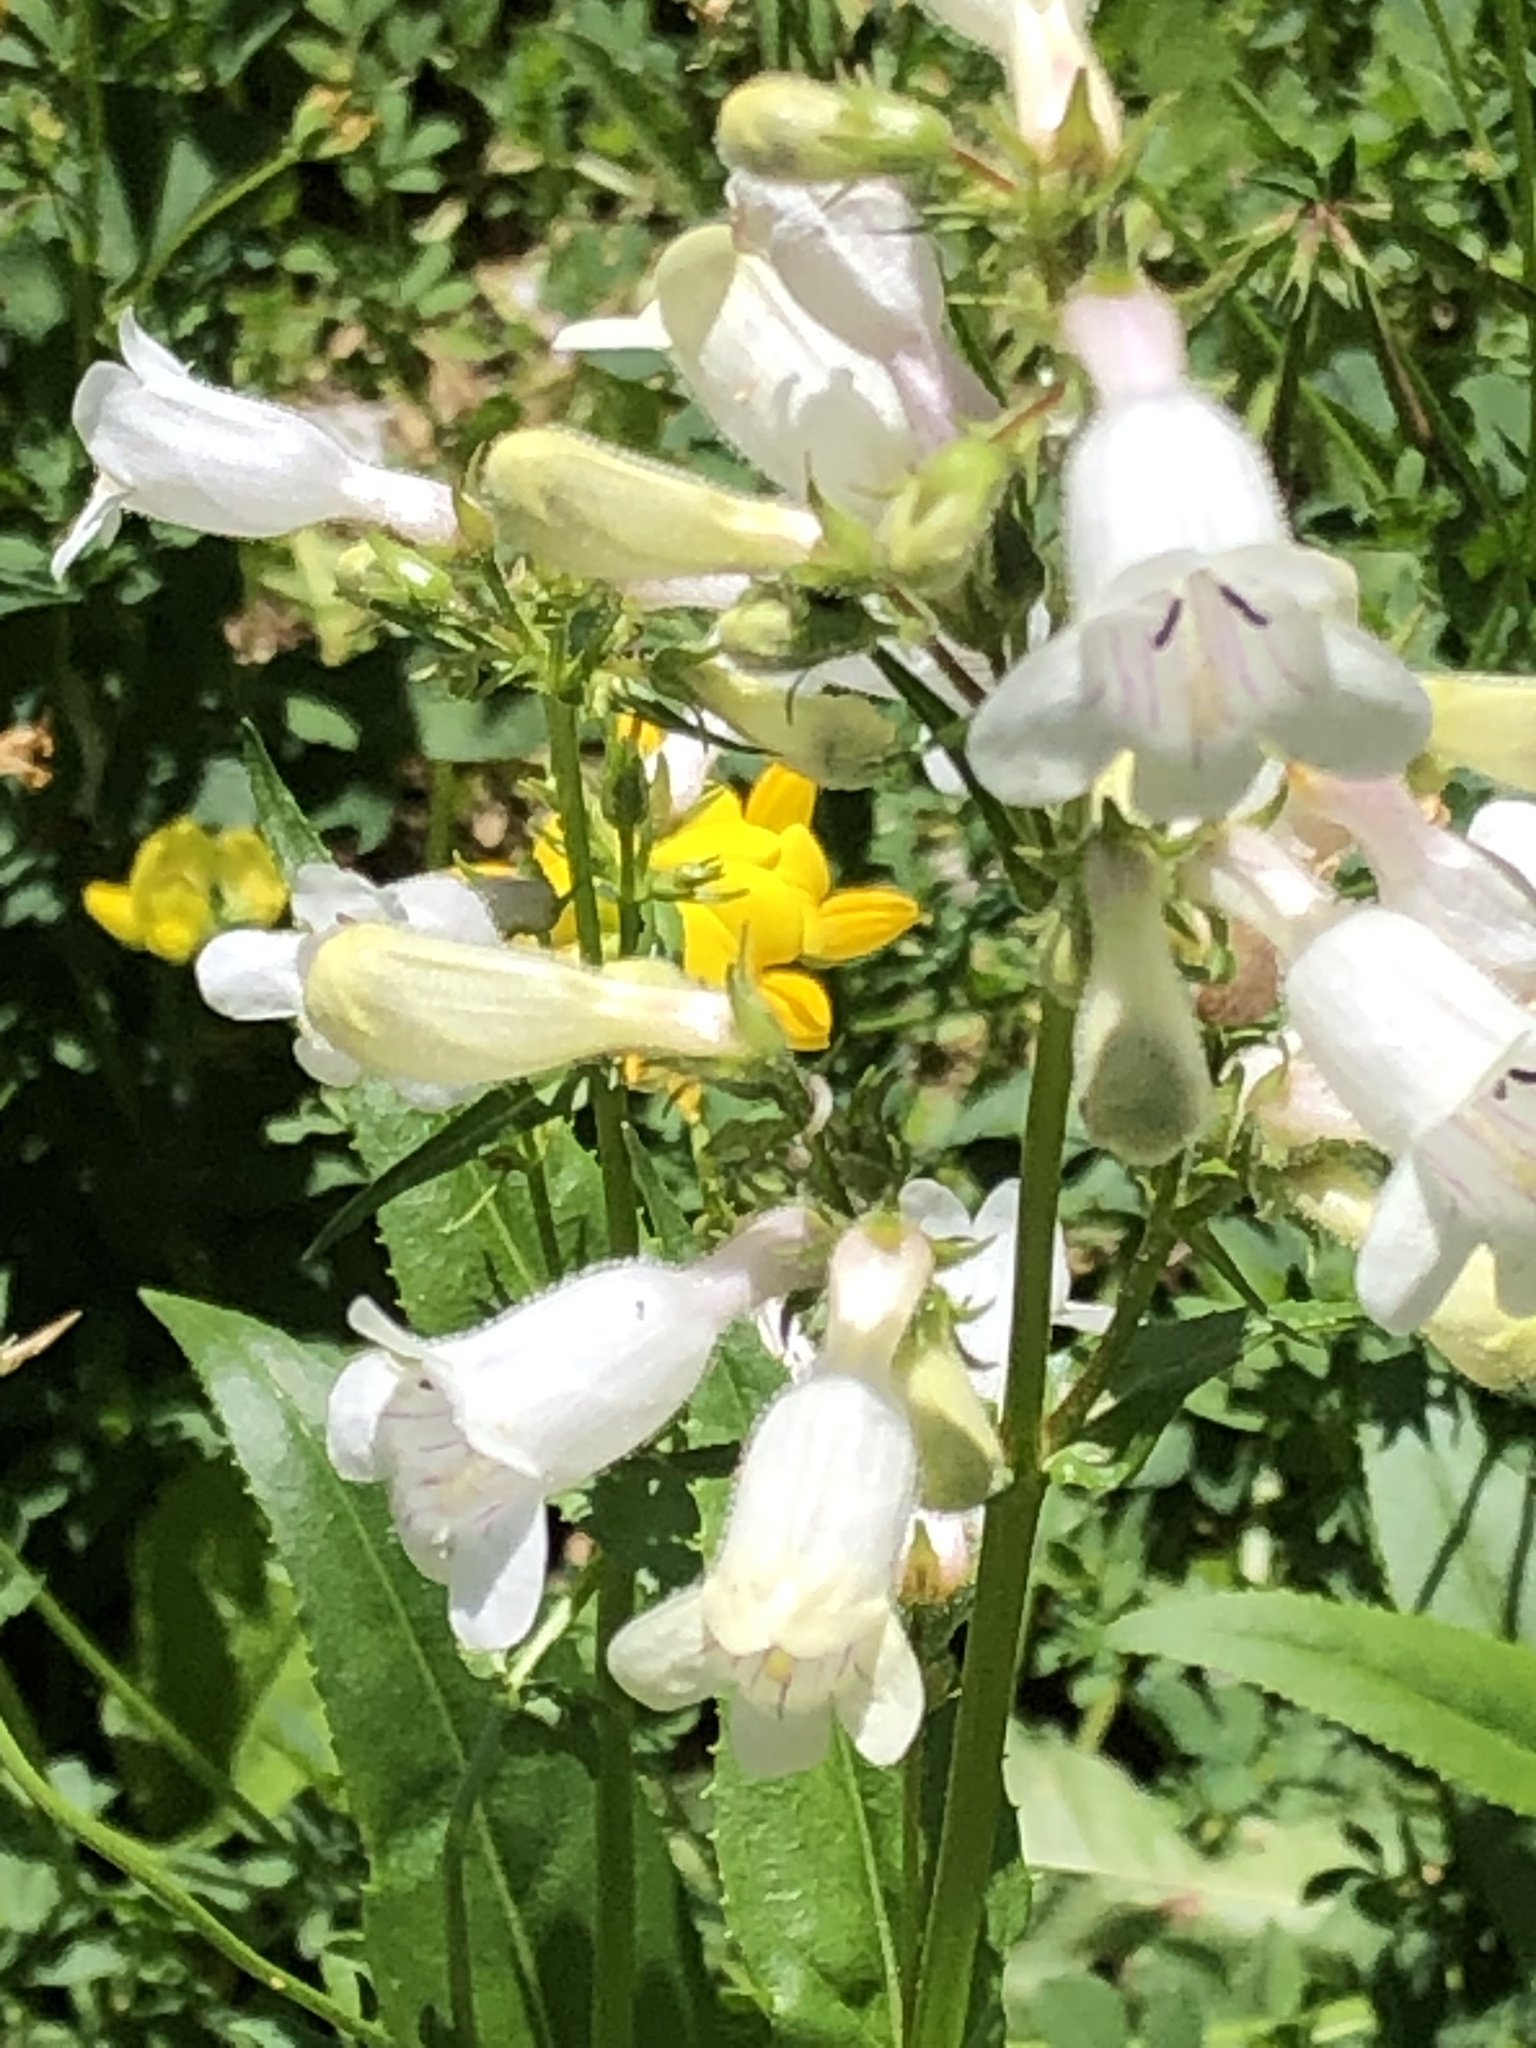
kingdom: Plantae
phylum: Tracheophyta
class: Magnoliopsida
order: Lamiales
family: Plantaginaceae
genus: Penstemon
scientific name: Penstemon digitalis
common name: Foxglove beardtongue
